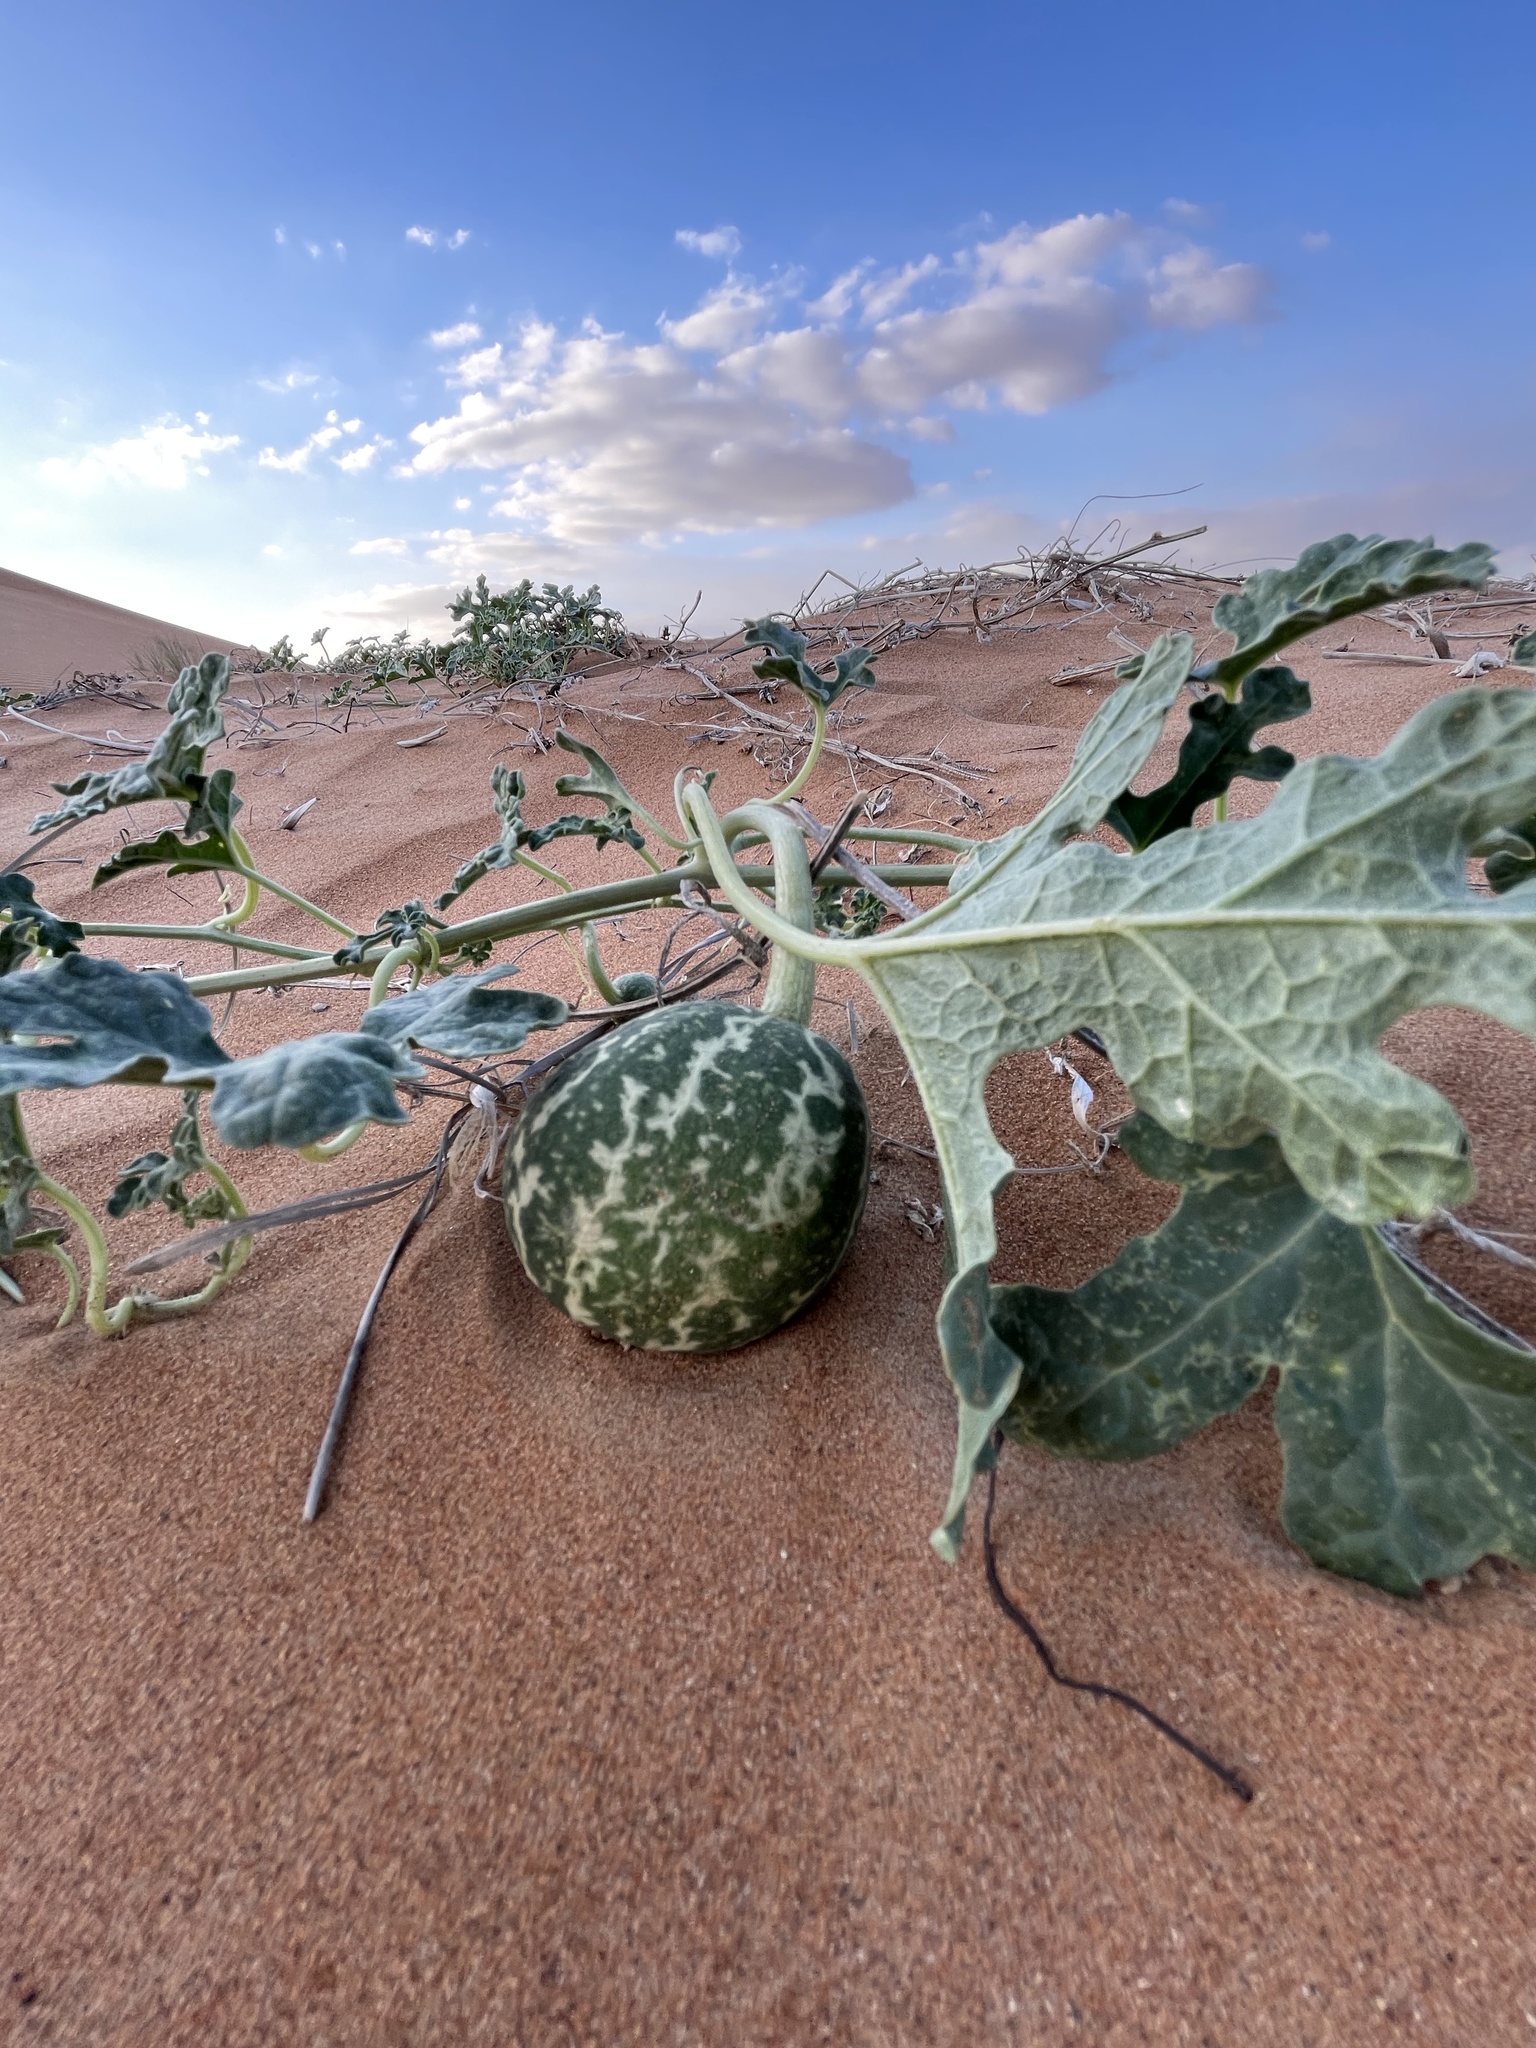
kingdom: Plantae
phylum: Tracheophyta
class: Magnoliopsida
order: Cucurbitales
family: Cucurbitaceae
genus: Citrullus
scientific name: Citrullus colocynthis
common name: Colocynth
